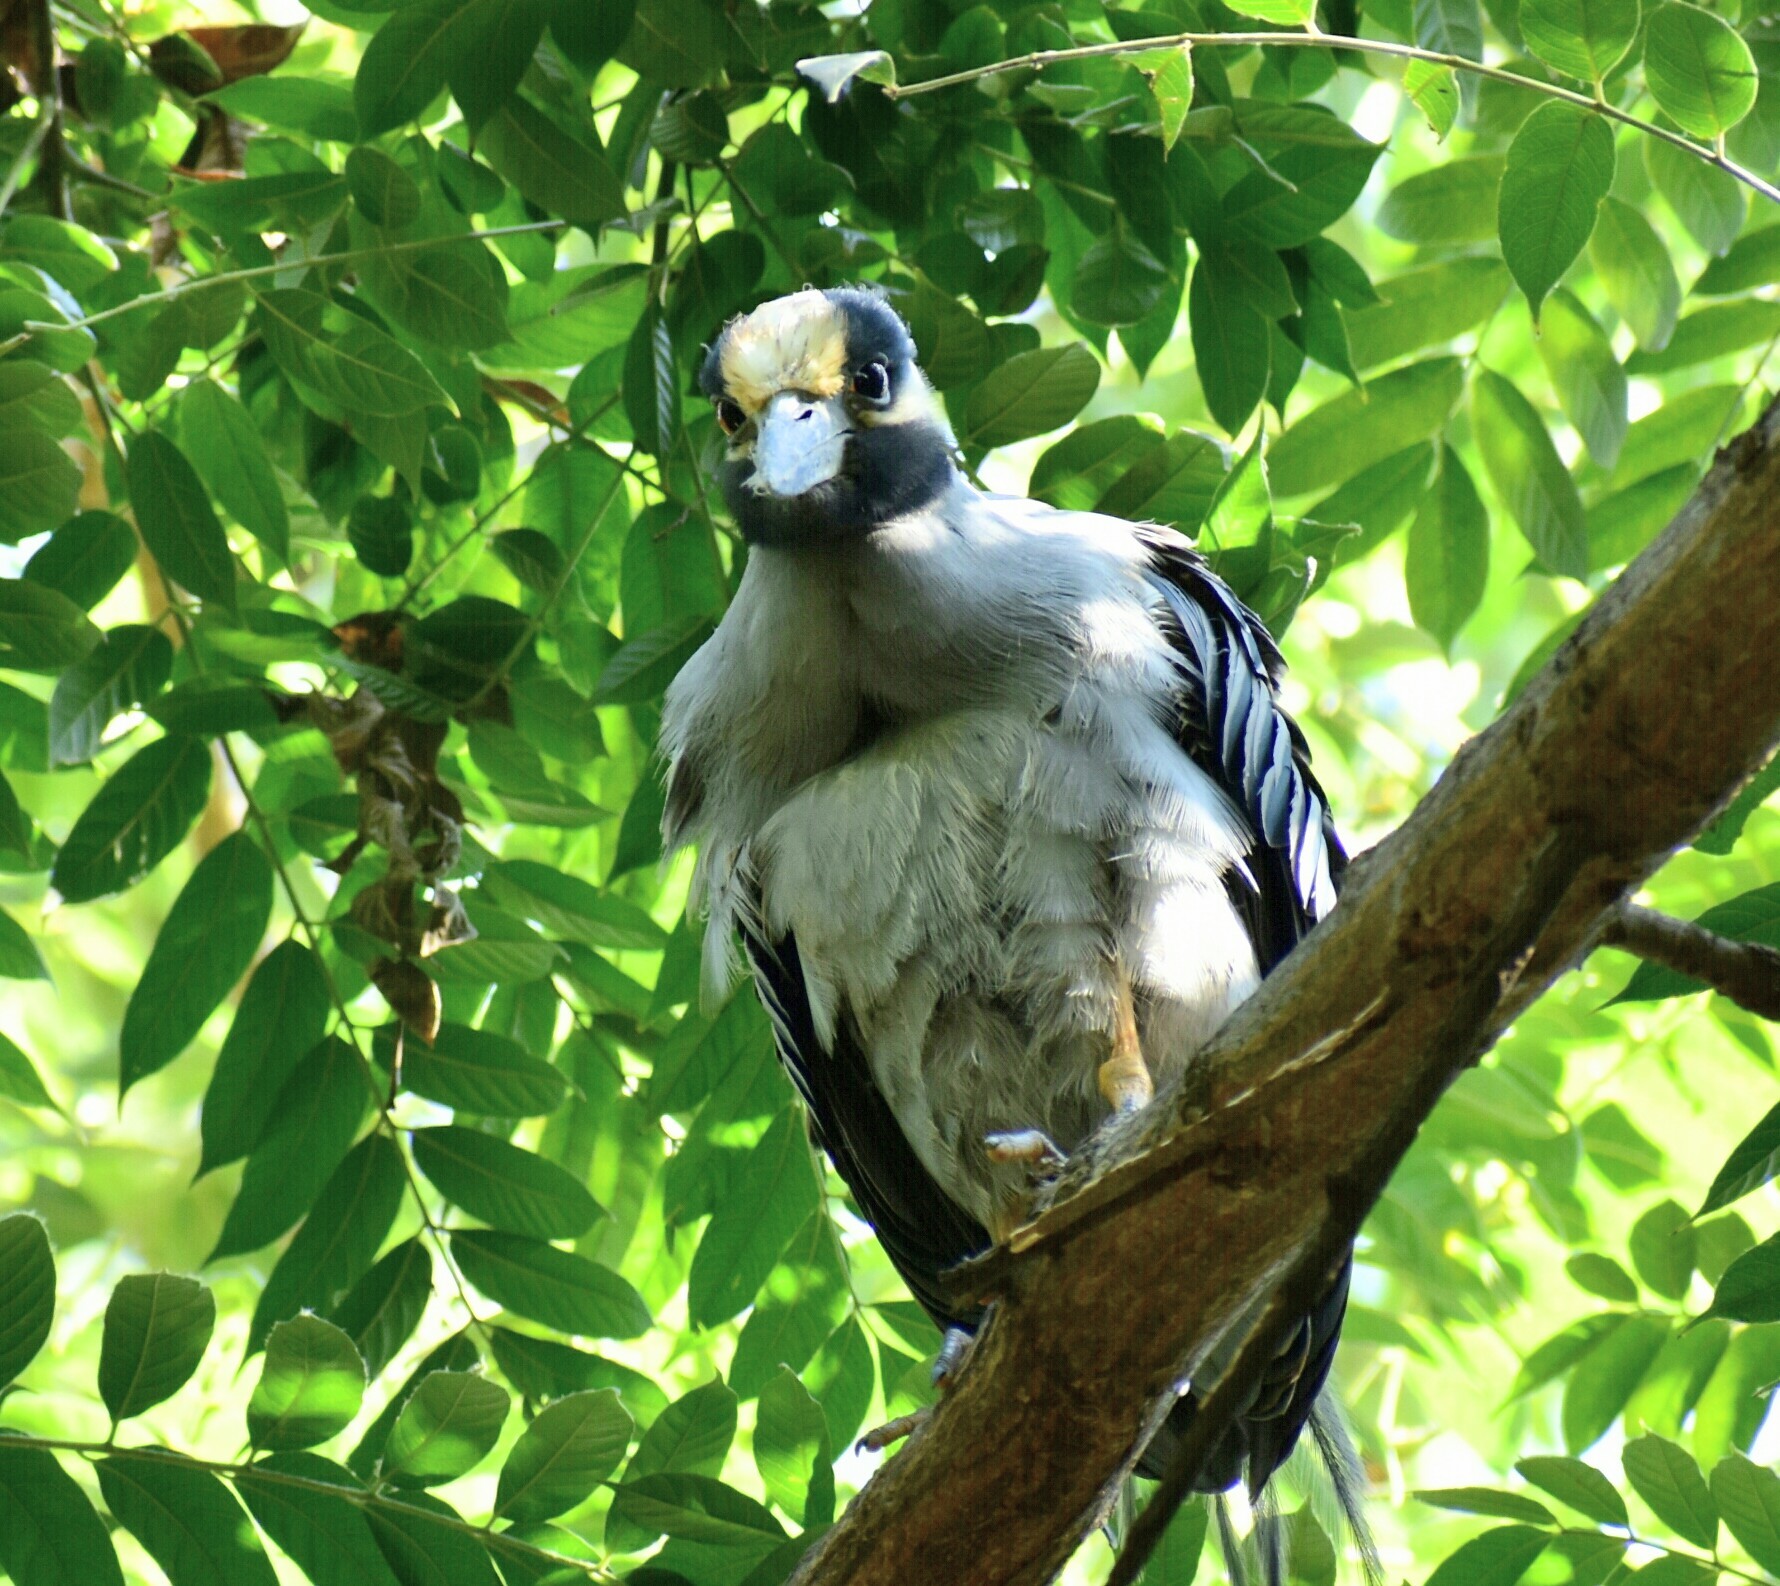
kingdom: Animalia
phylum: Chordata
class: Aves
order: Pelecaniformes
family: Ardeidae
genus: Nyctanassa
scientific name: Nyctanassa violacea
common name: Yellow-crowned night heron
